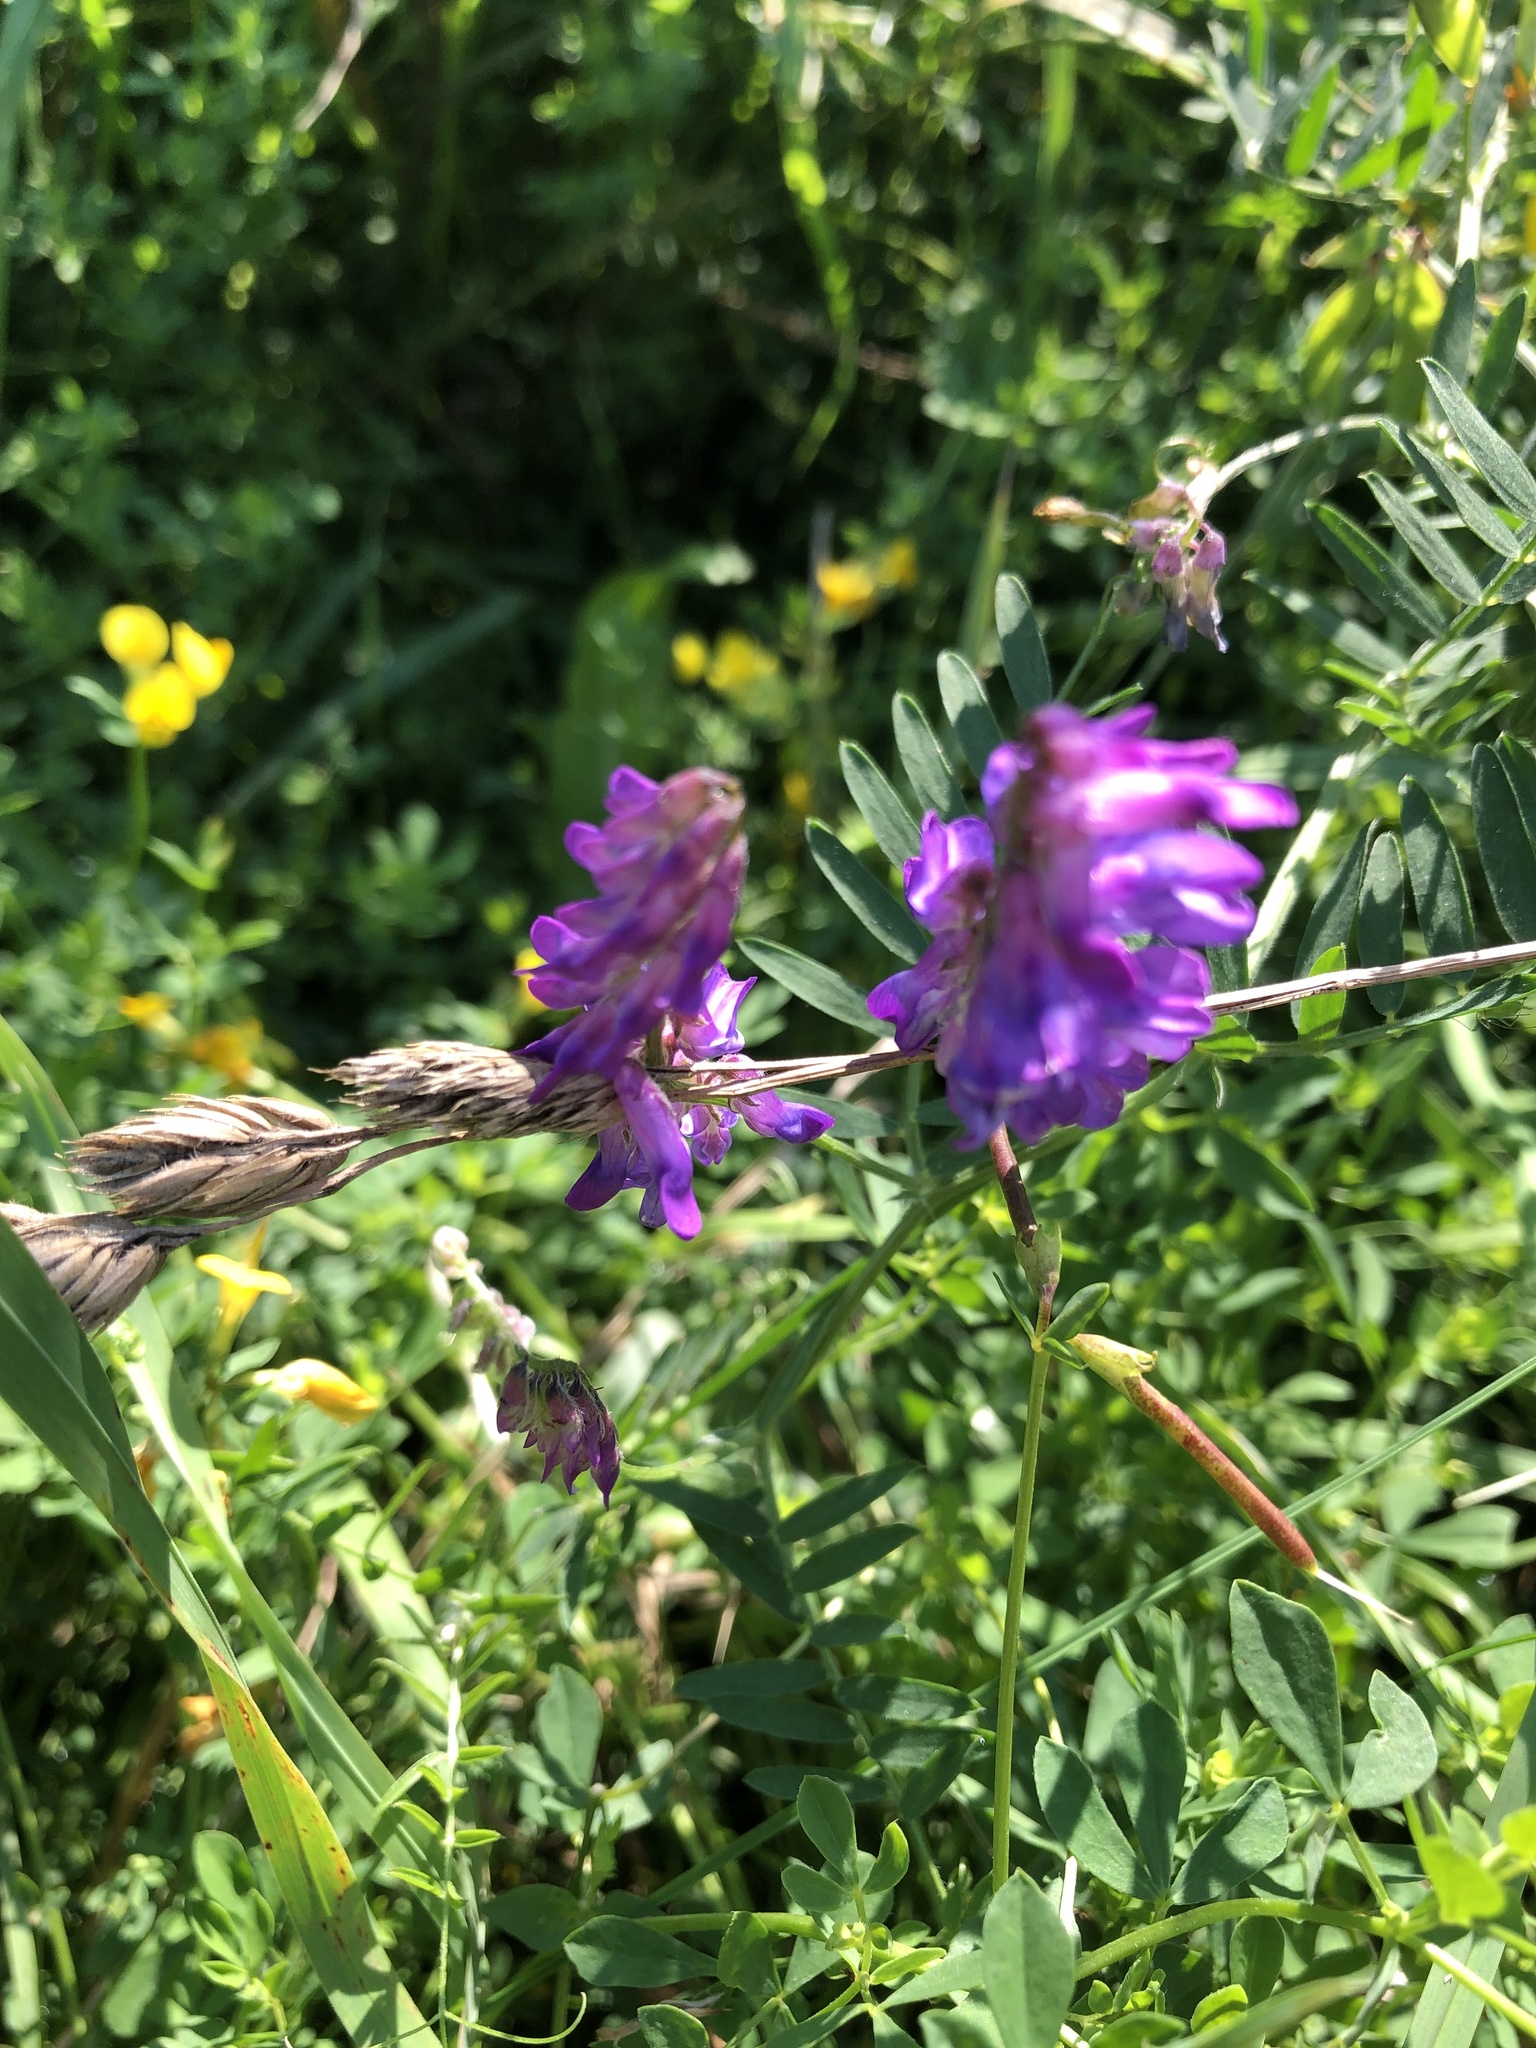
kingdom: Plantae
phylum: Tracheophyta
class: Magnoliopsida
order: Fabales
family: Fabaceae
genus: Vicia
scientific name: Vicia cracca
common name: Bird vetch
